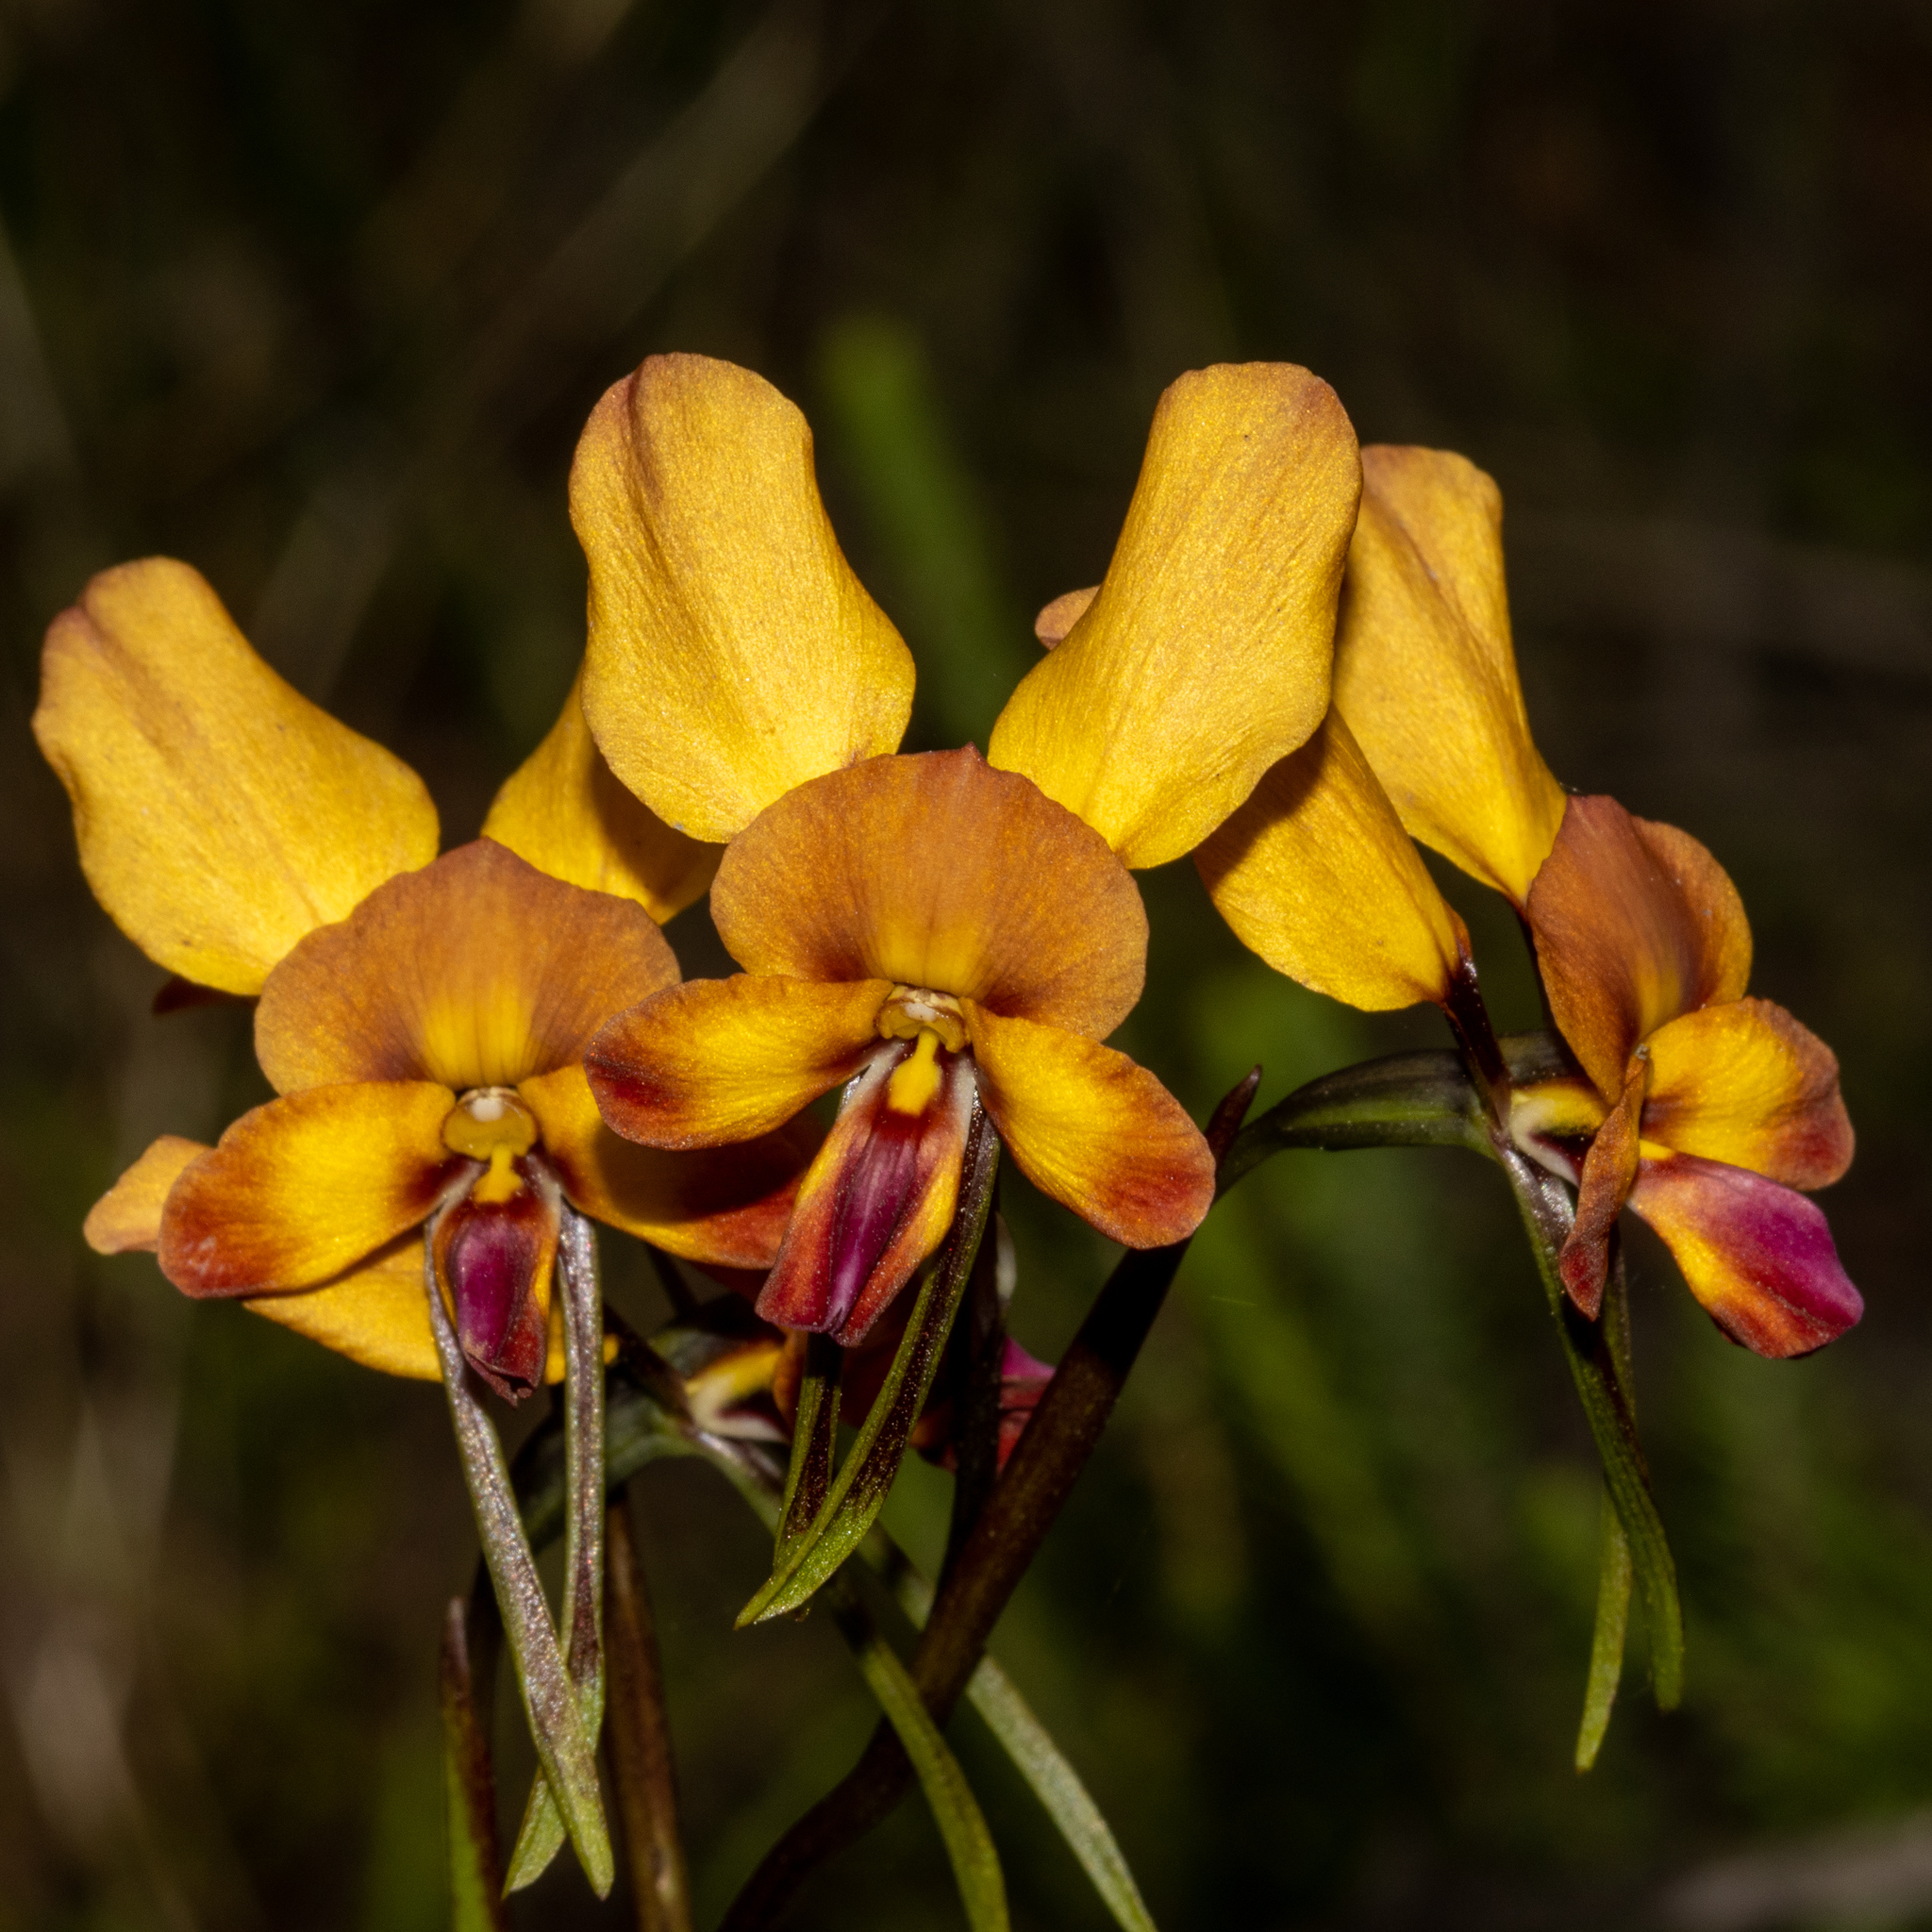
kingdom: Plantae
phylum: Tracheophyta
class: Liliopsida
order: Asparagales
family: Orchidaceae
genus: Diuris
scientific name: Diuris cruenta
